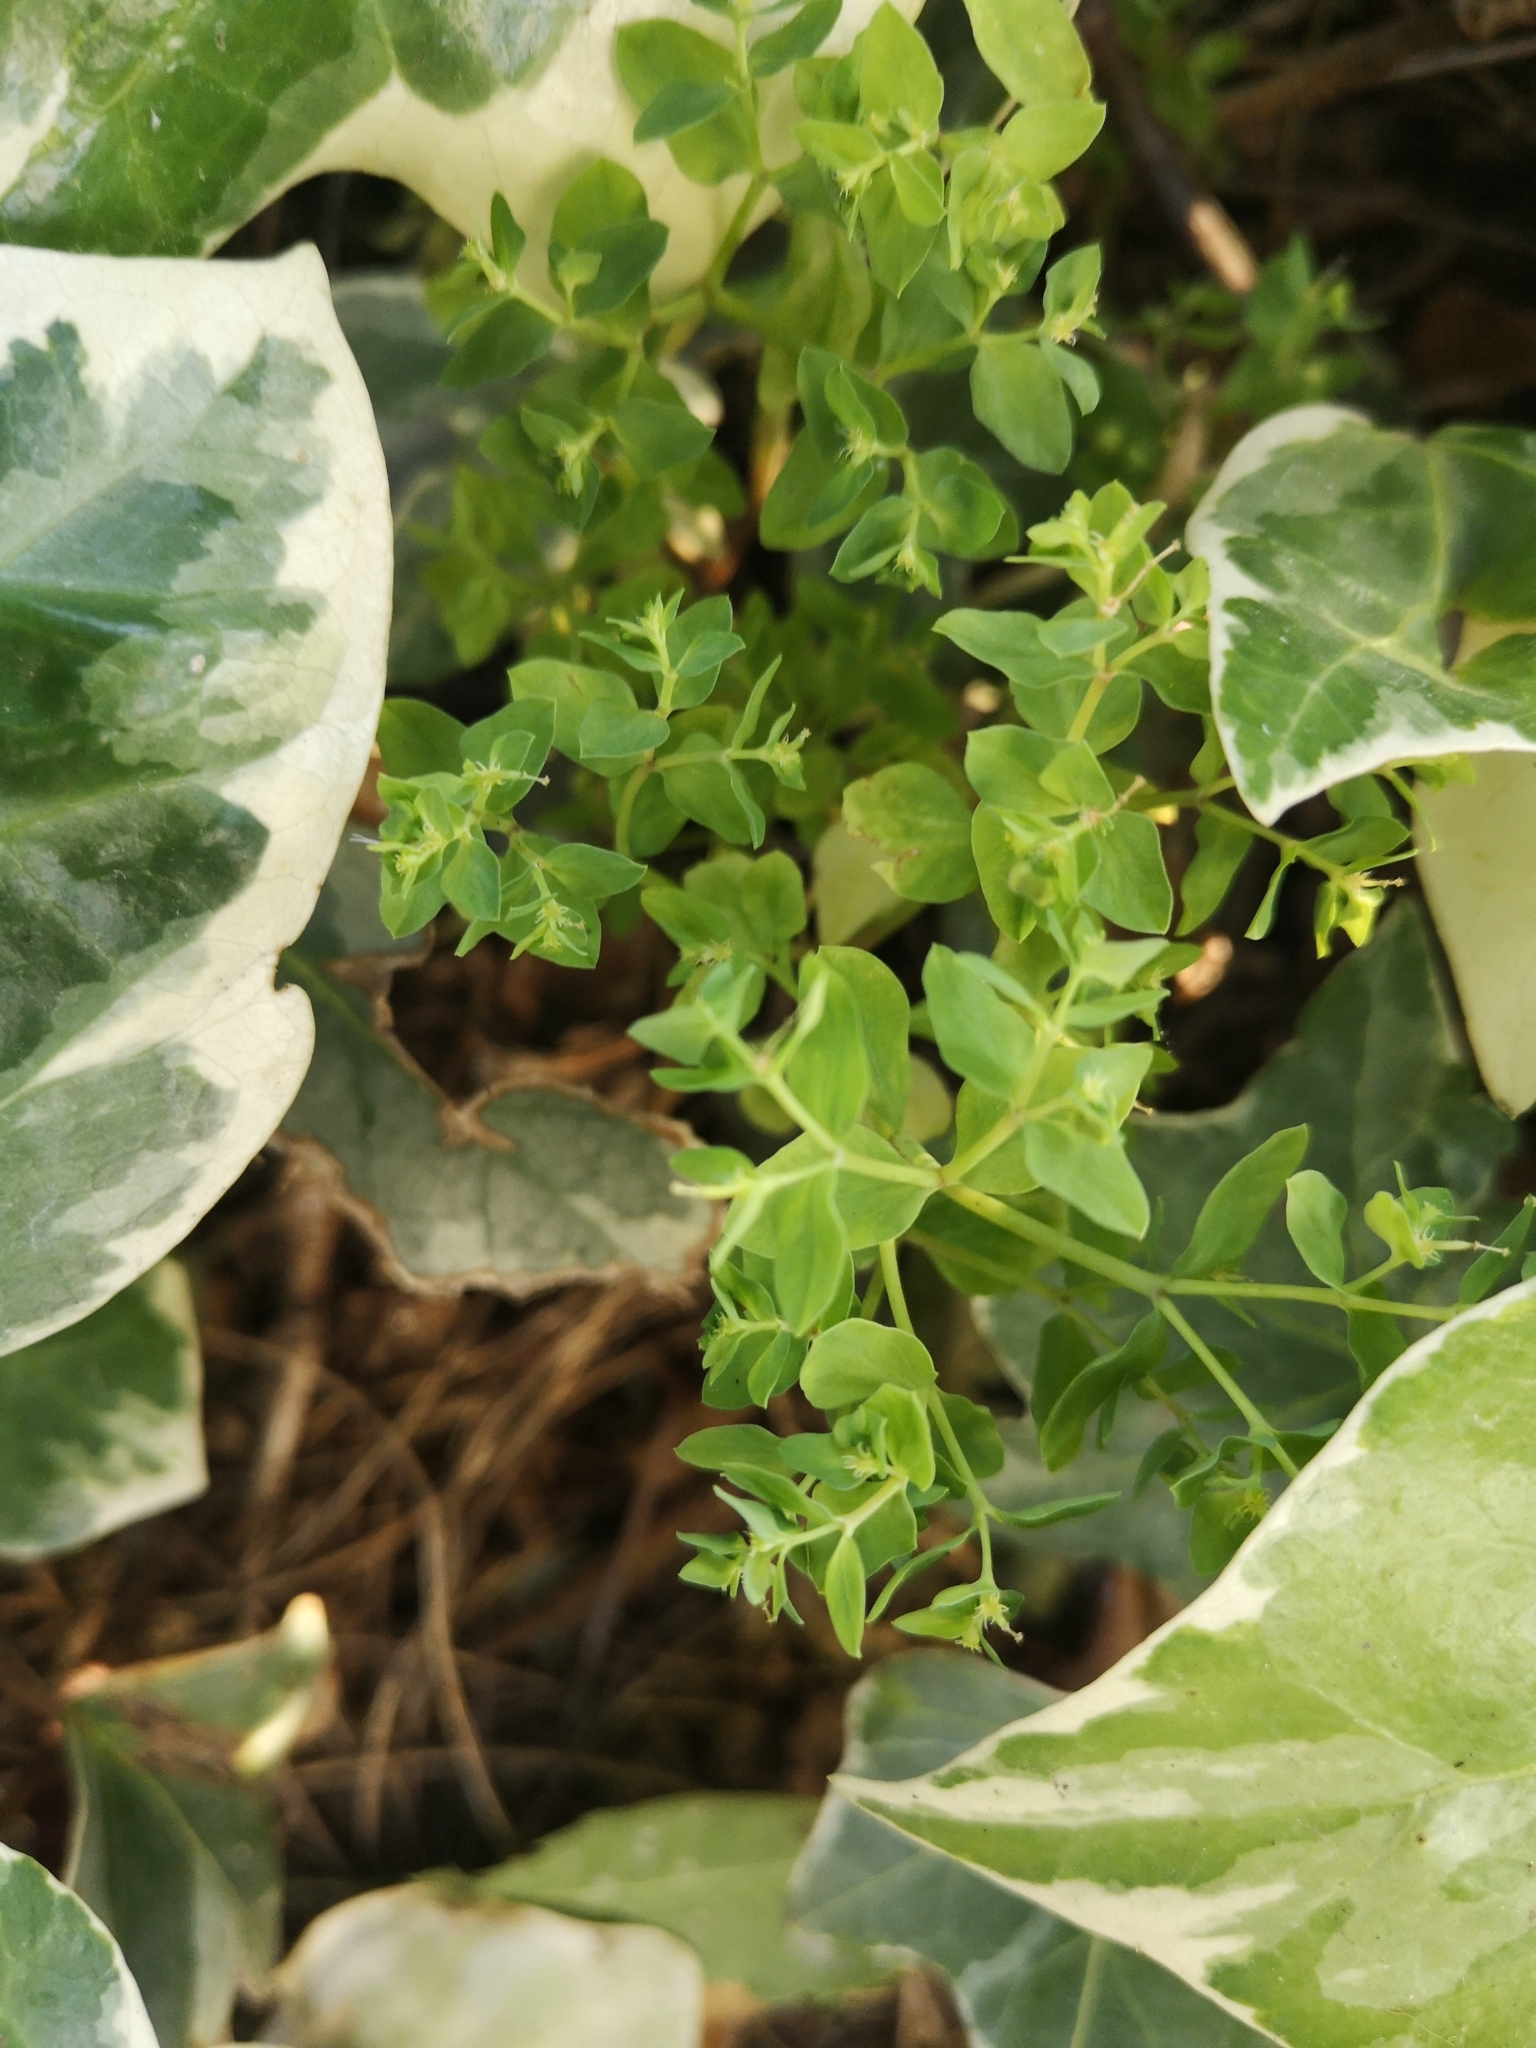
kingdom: Plantae
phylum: Tracheophyta
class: Magnoliopsida
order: Malpighiales
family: Euphorbiaceae
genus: Euphorbia
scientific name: Euphorbia peplus
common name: Petty spurge
